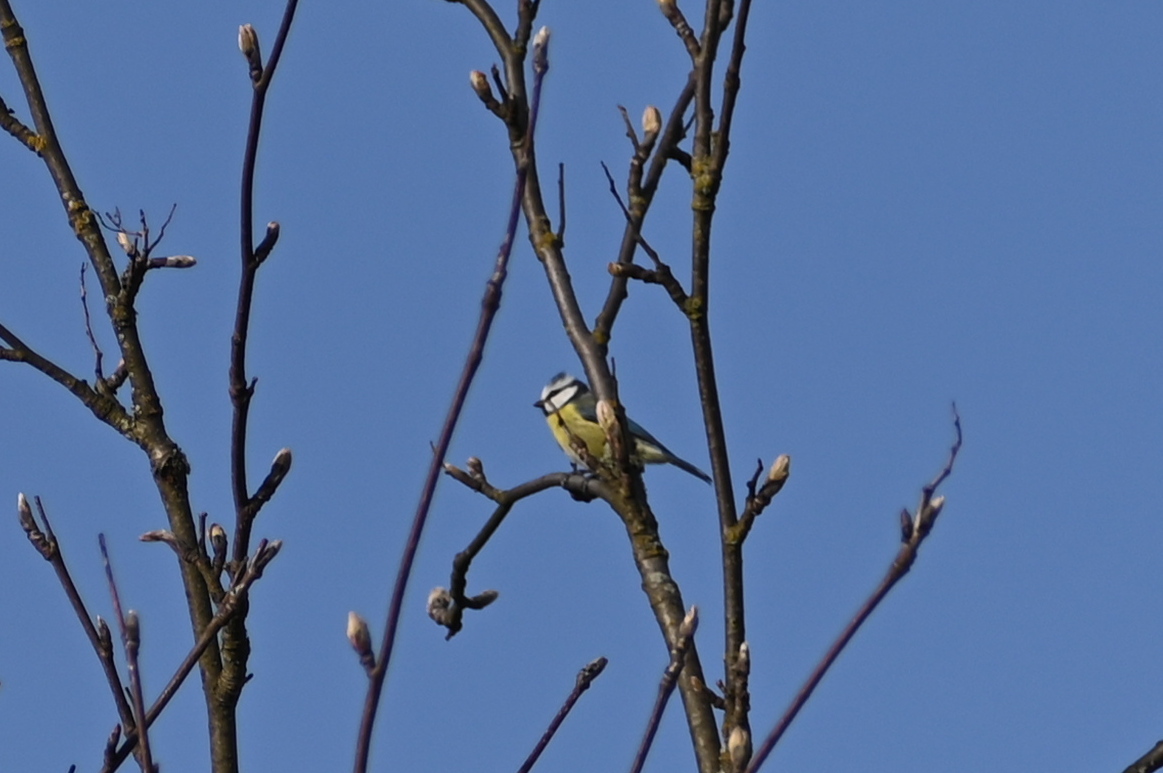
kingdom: Animalia
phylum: Chordata
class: Aves
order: Passeriformes
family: Paridae
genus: Cyanistes
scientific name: Cyanistes caeruleus
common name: Eurasian blue tit
